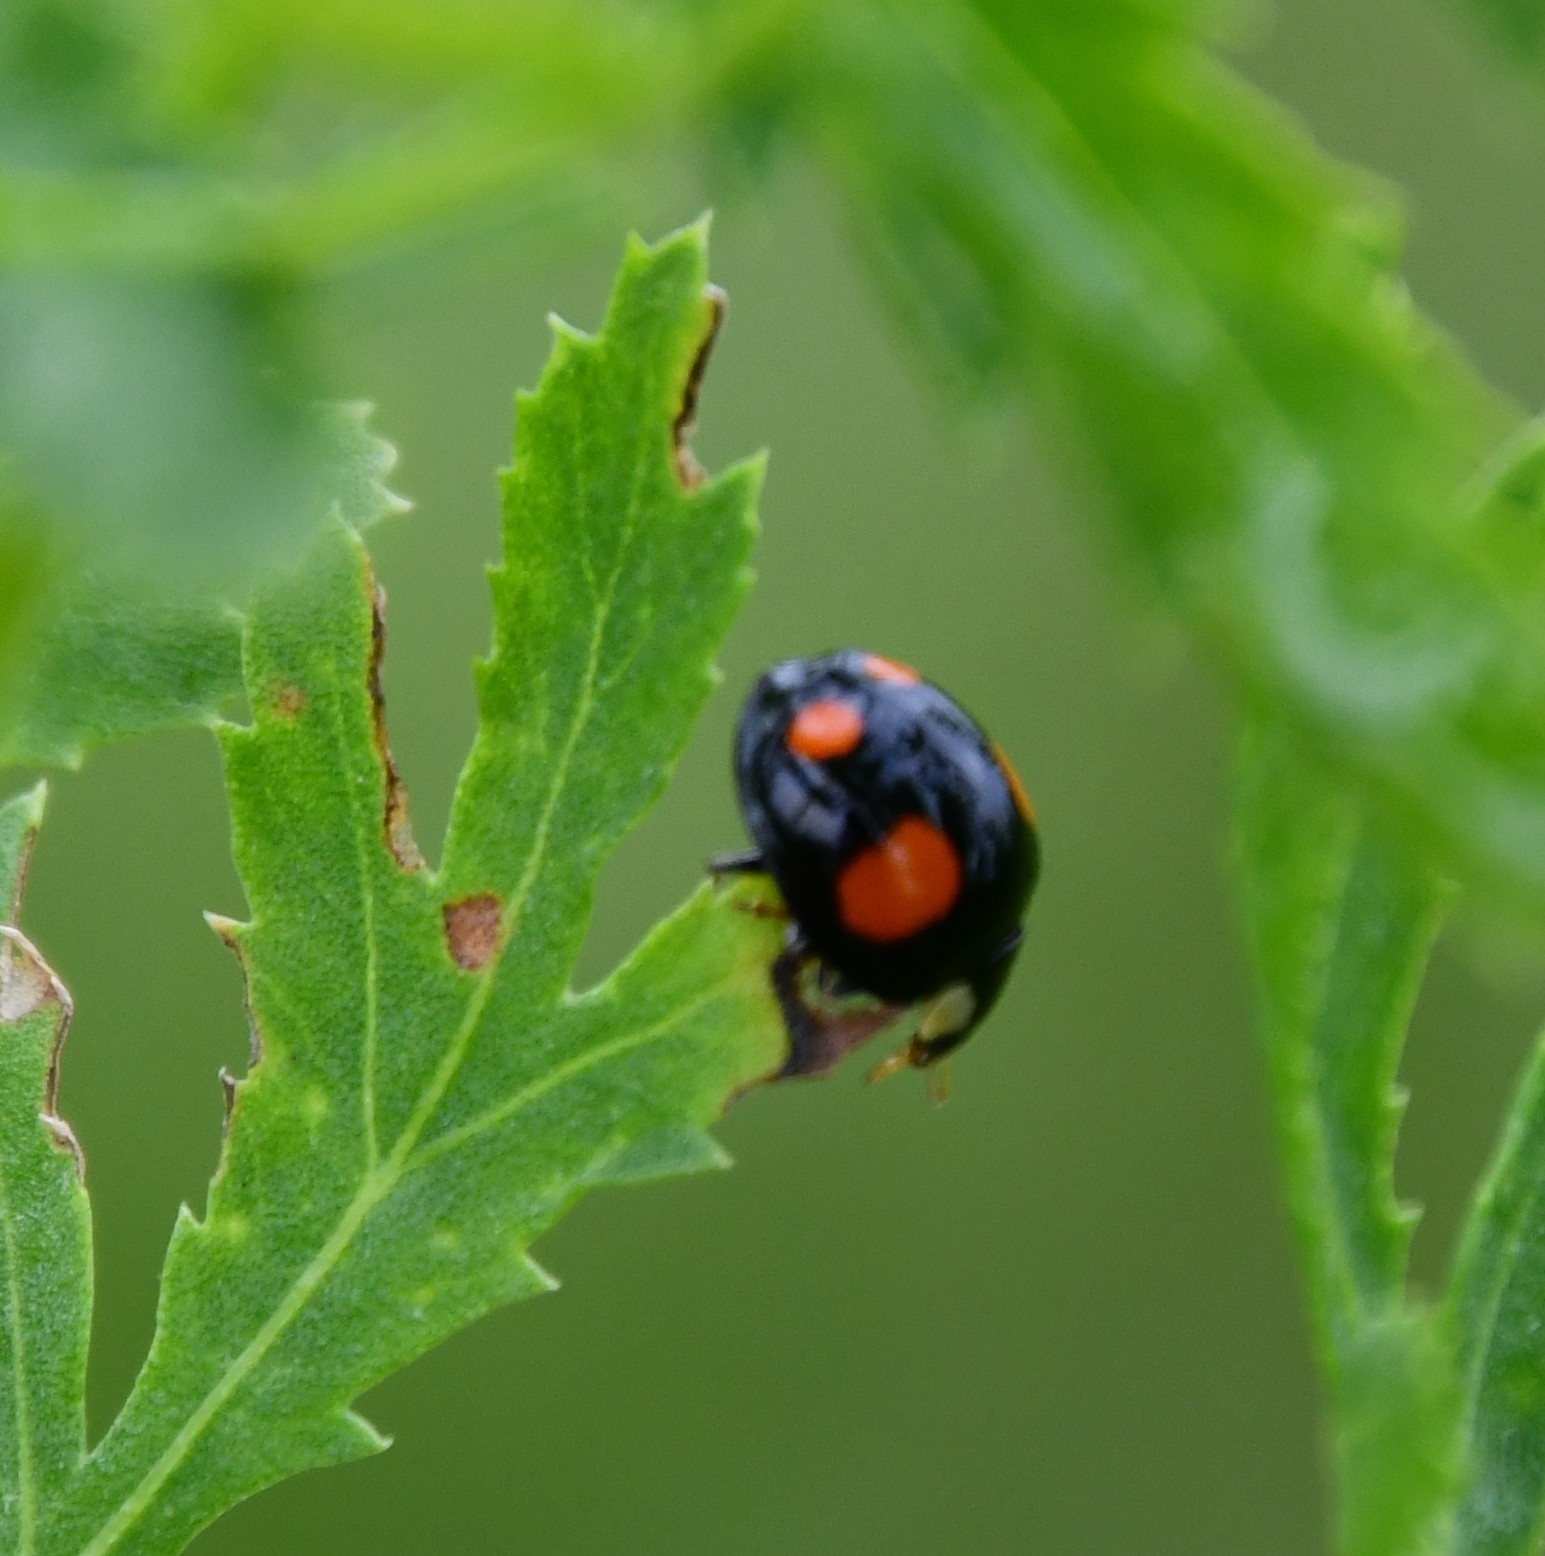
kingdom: Animalia
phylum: Arthropoda
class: Insecta
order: Coleoptera
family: Coccinellidae
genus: Harmonia
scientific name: Harmonia axyridis
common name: Harlequin ladybird
